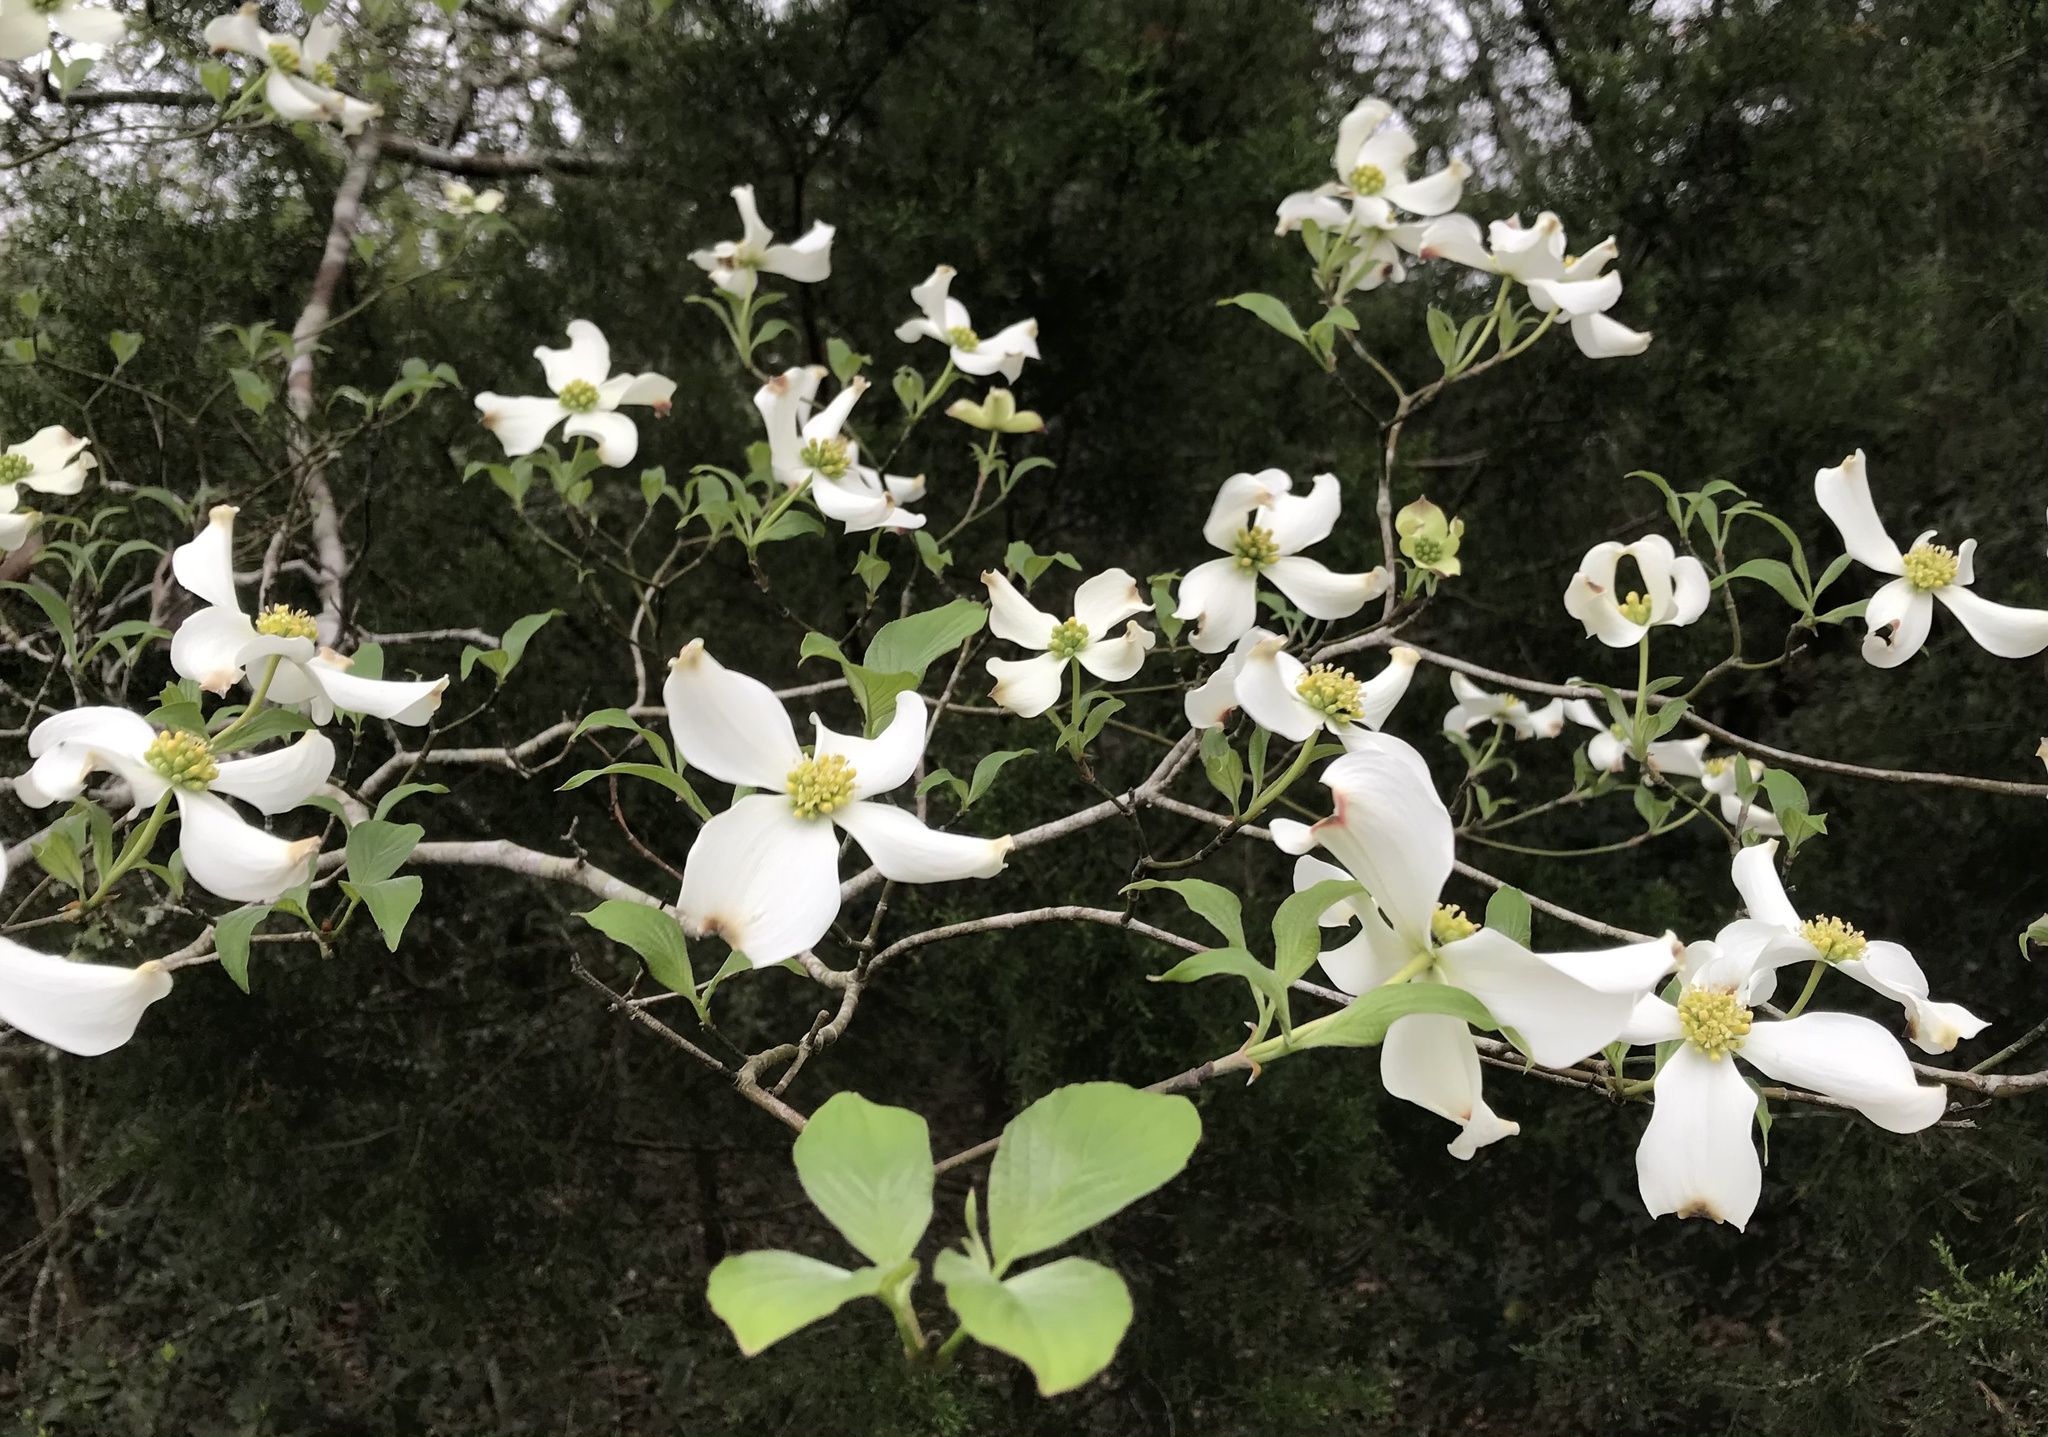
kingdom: Plantae
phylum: Tracheophyta
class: Magnoliopsida
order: Cornales
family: Cornaceae
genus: Cornus
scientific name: Cornus florida
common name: Flowering dogwood
